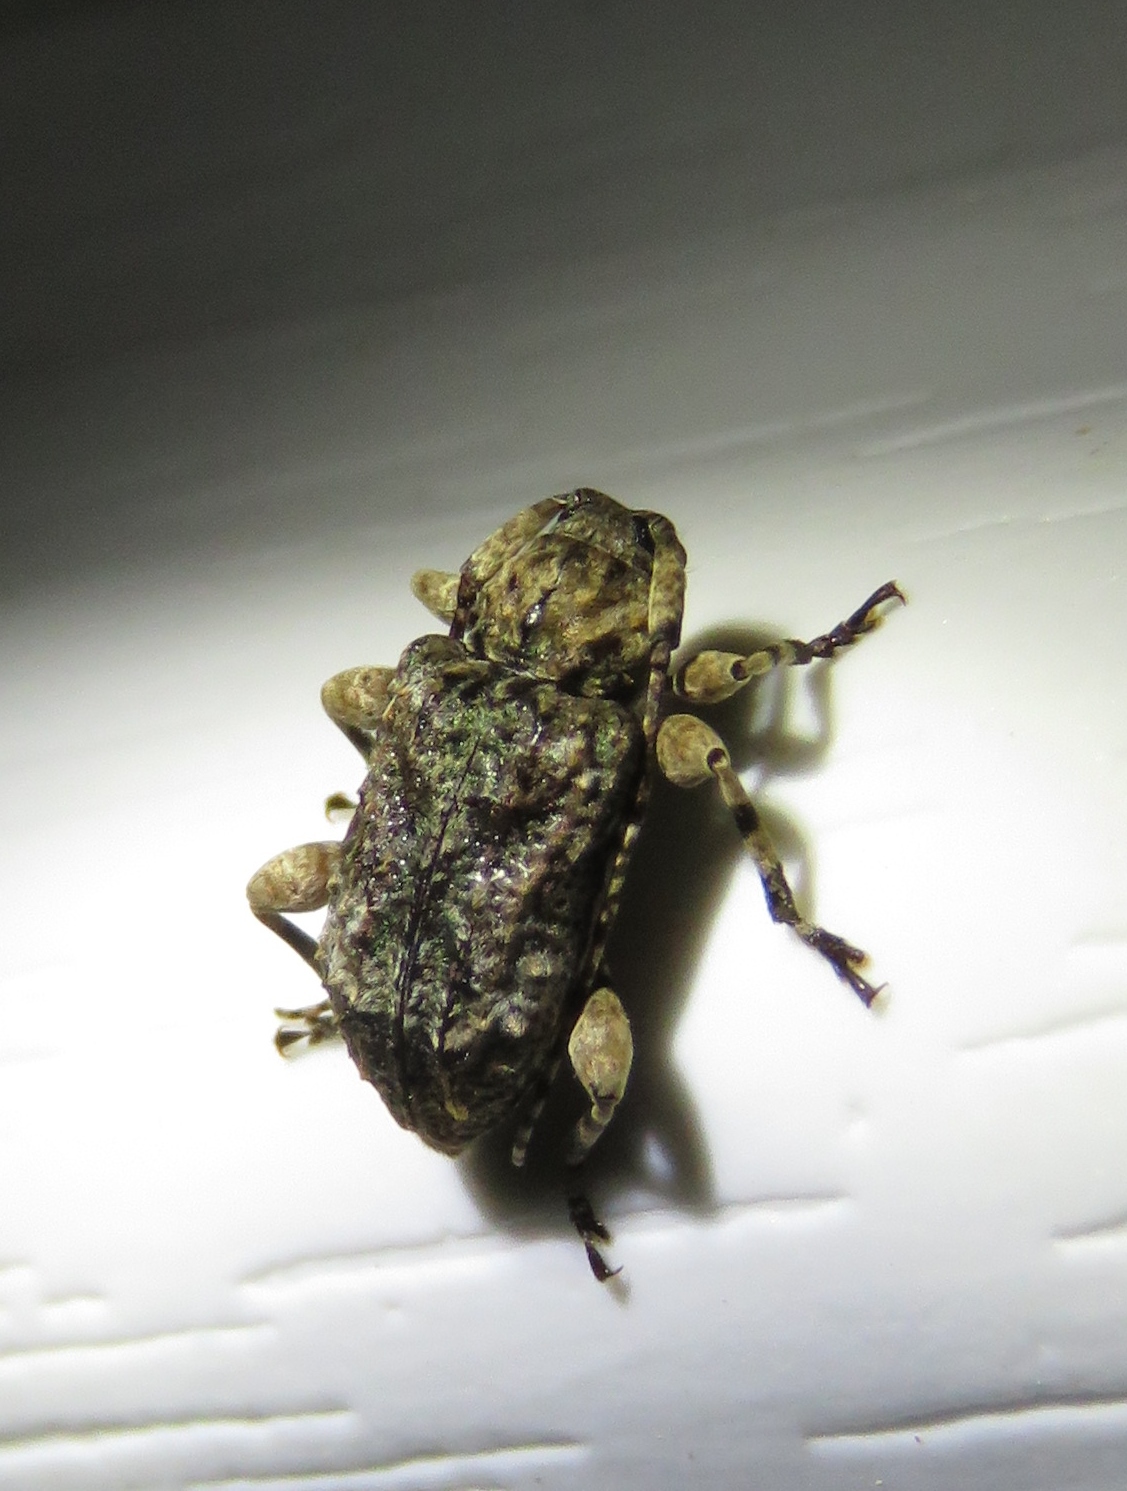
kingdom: Animalia
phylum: Arthropoda
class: Insecta
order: Coleoptera
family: Cerambycidae
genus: Leptostylus
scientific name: Leptostylus transversus
